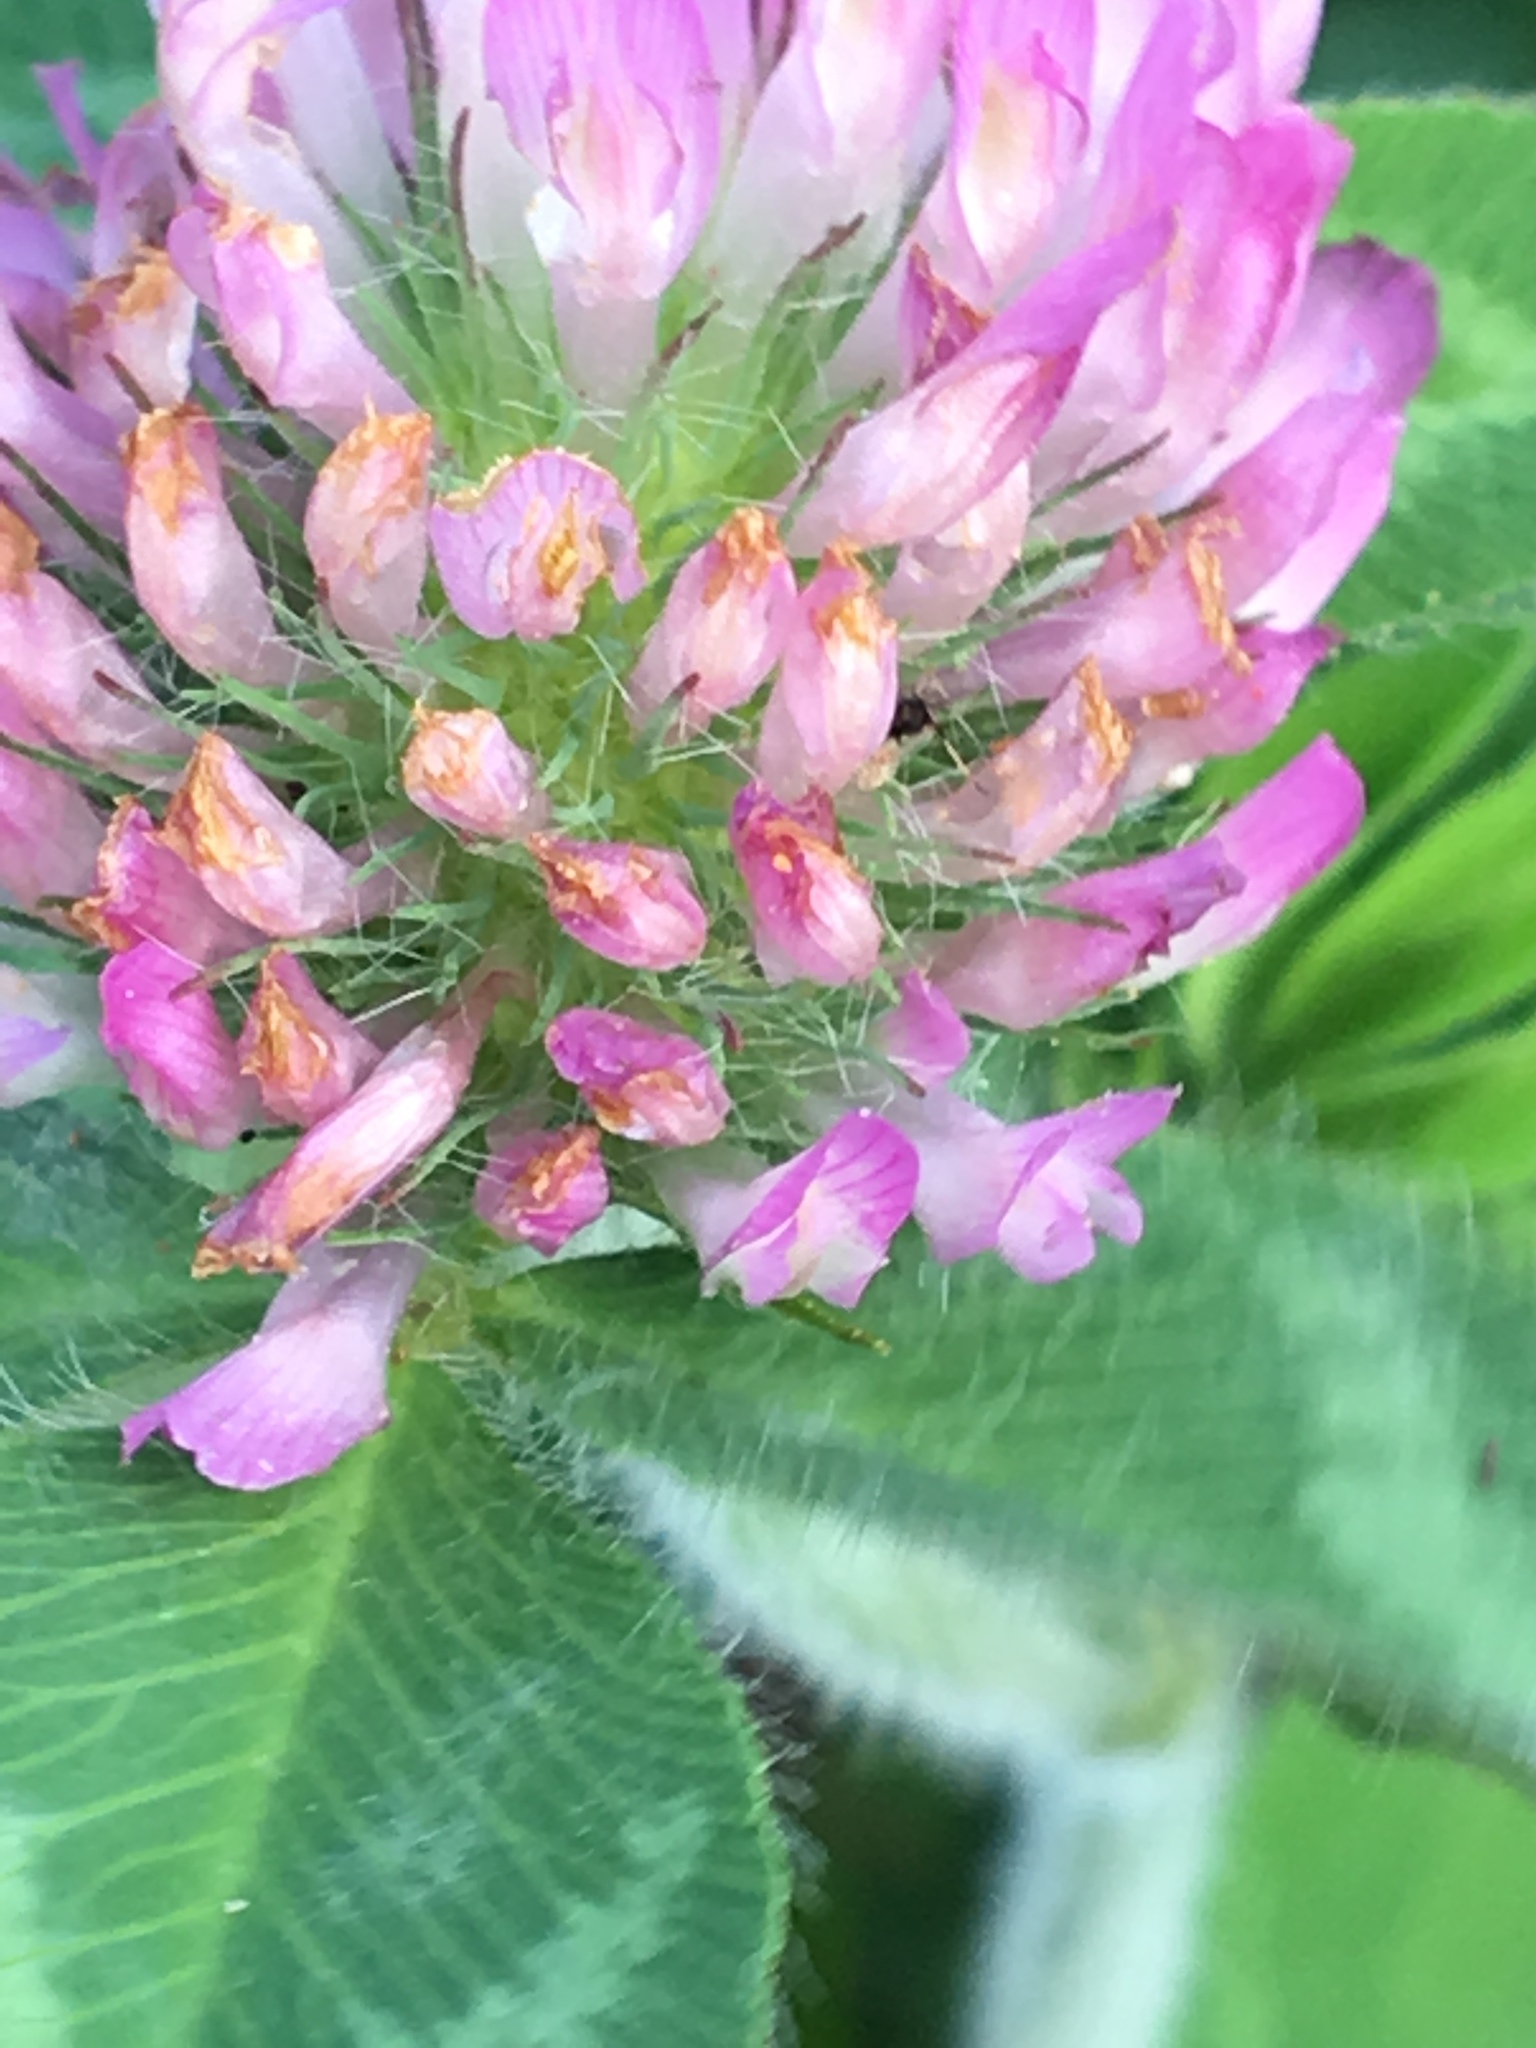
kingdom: Plantae
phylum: Tracheophyta
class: Magnoliopsida
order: Fabales
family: Fabaceae
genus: Trifolium
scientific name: Trifolium pratense
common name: Red clover
